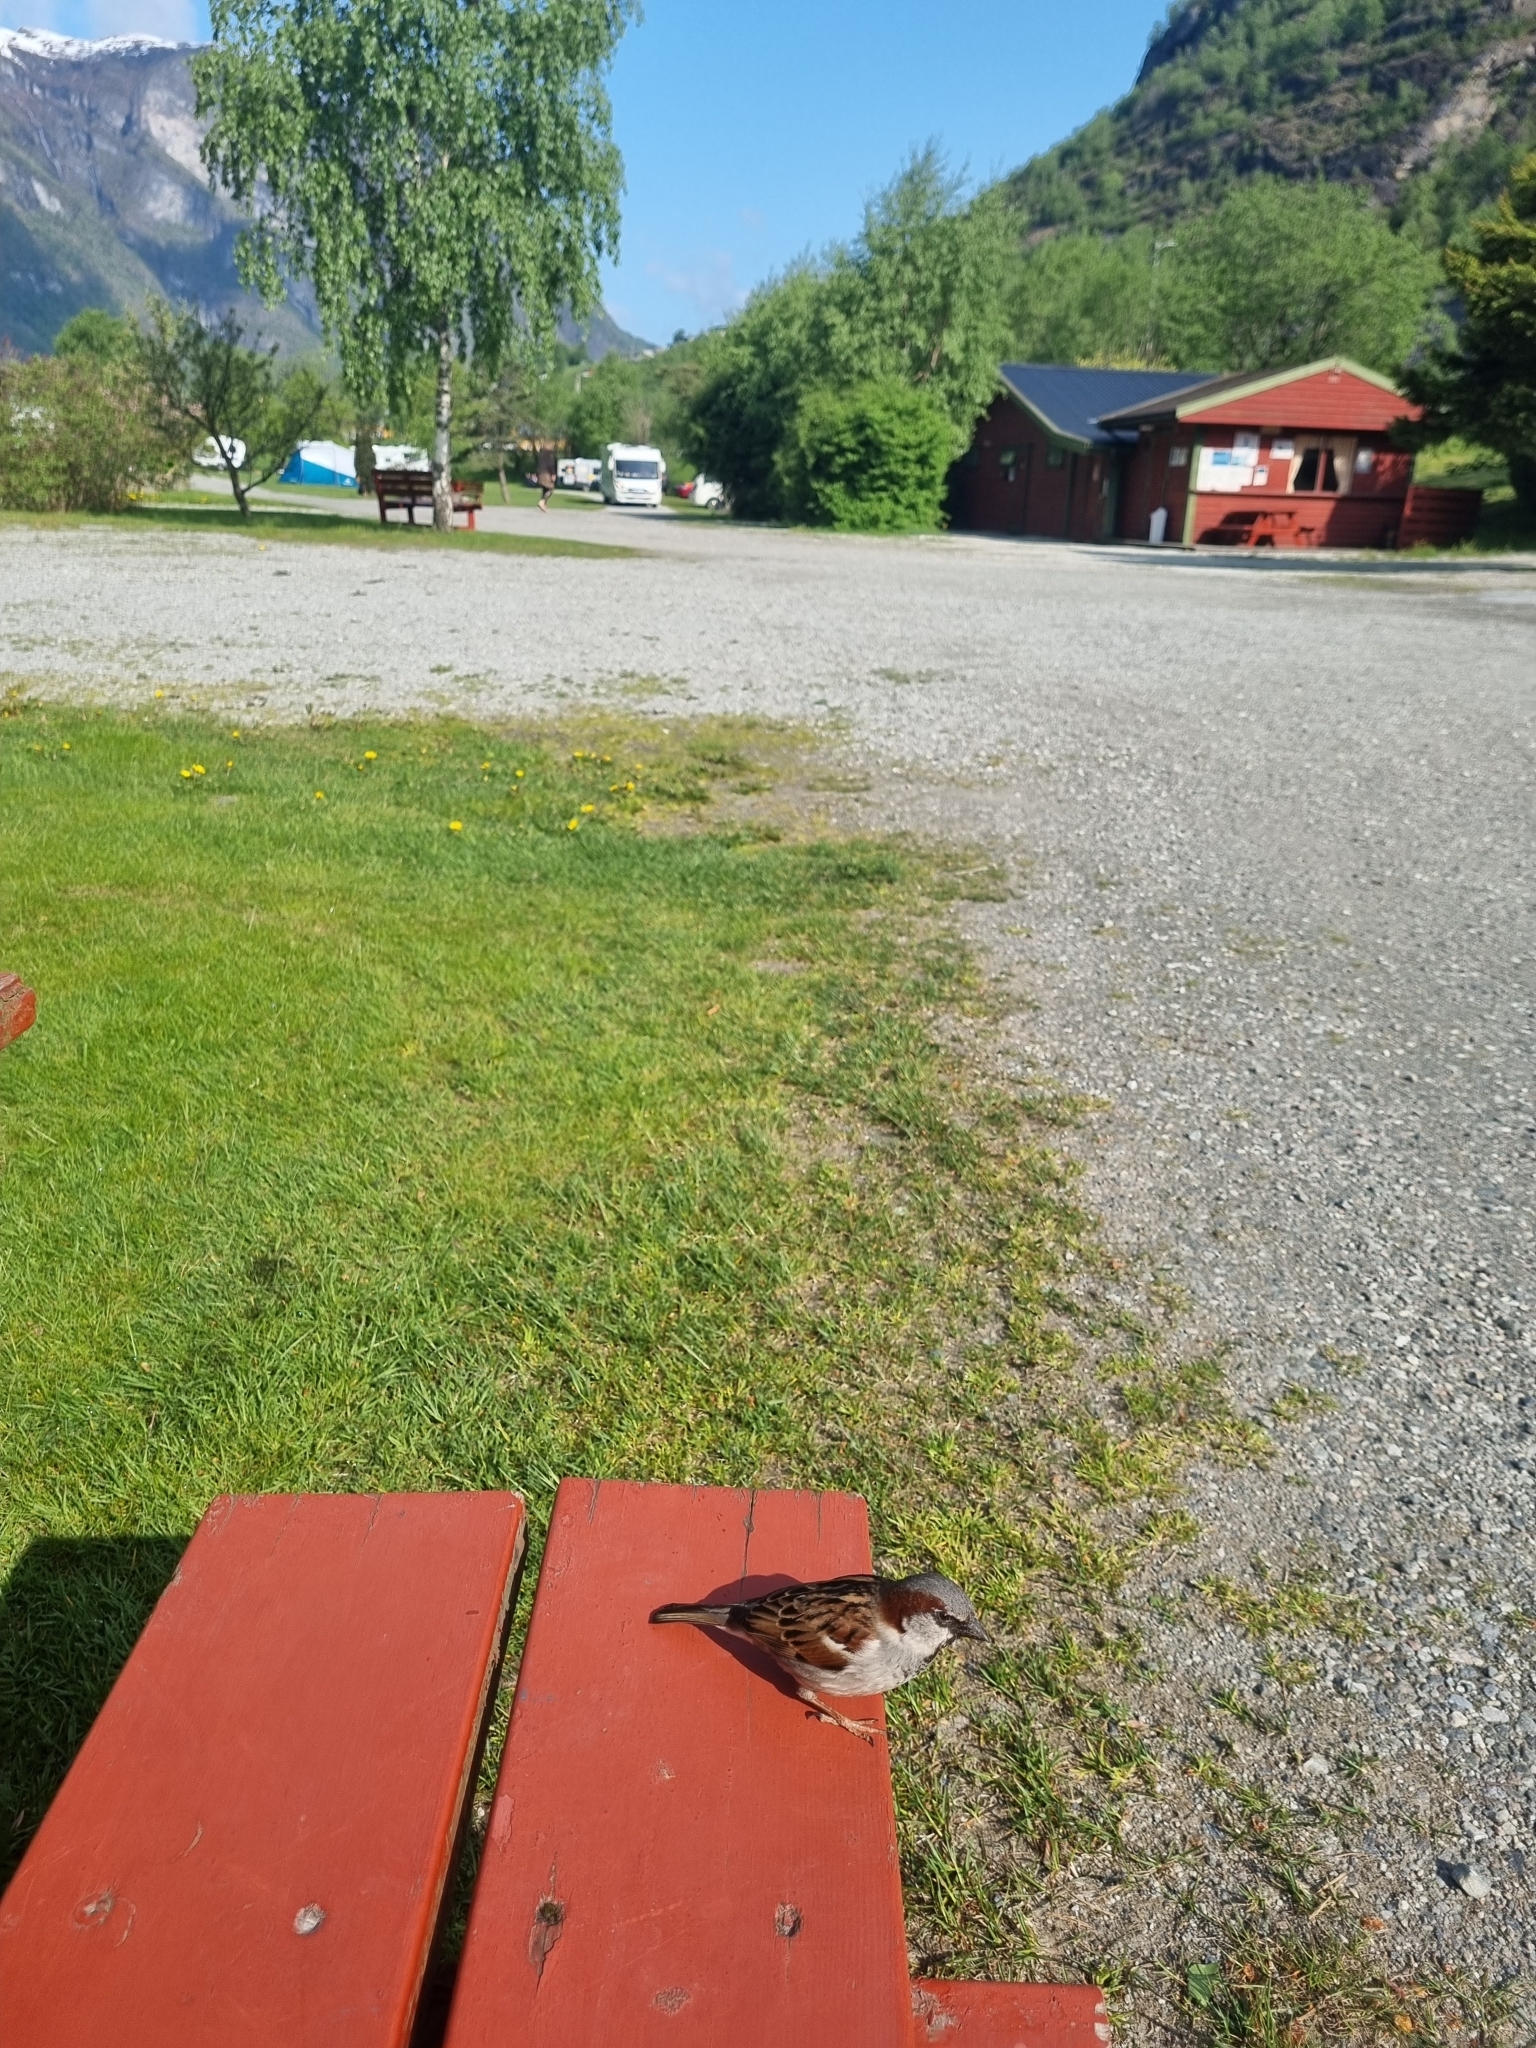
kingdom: Animalia
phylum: Chordata
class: Aves
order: Passeriformes
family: Passeridae
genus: Passer
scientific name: Passer domesticus
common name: House sparrow
